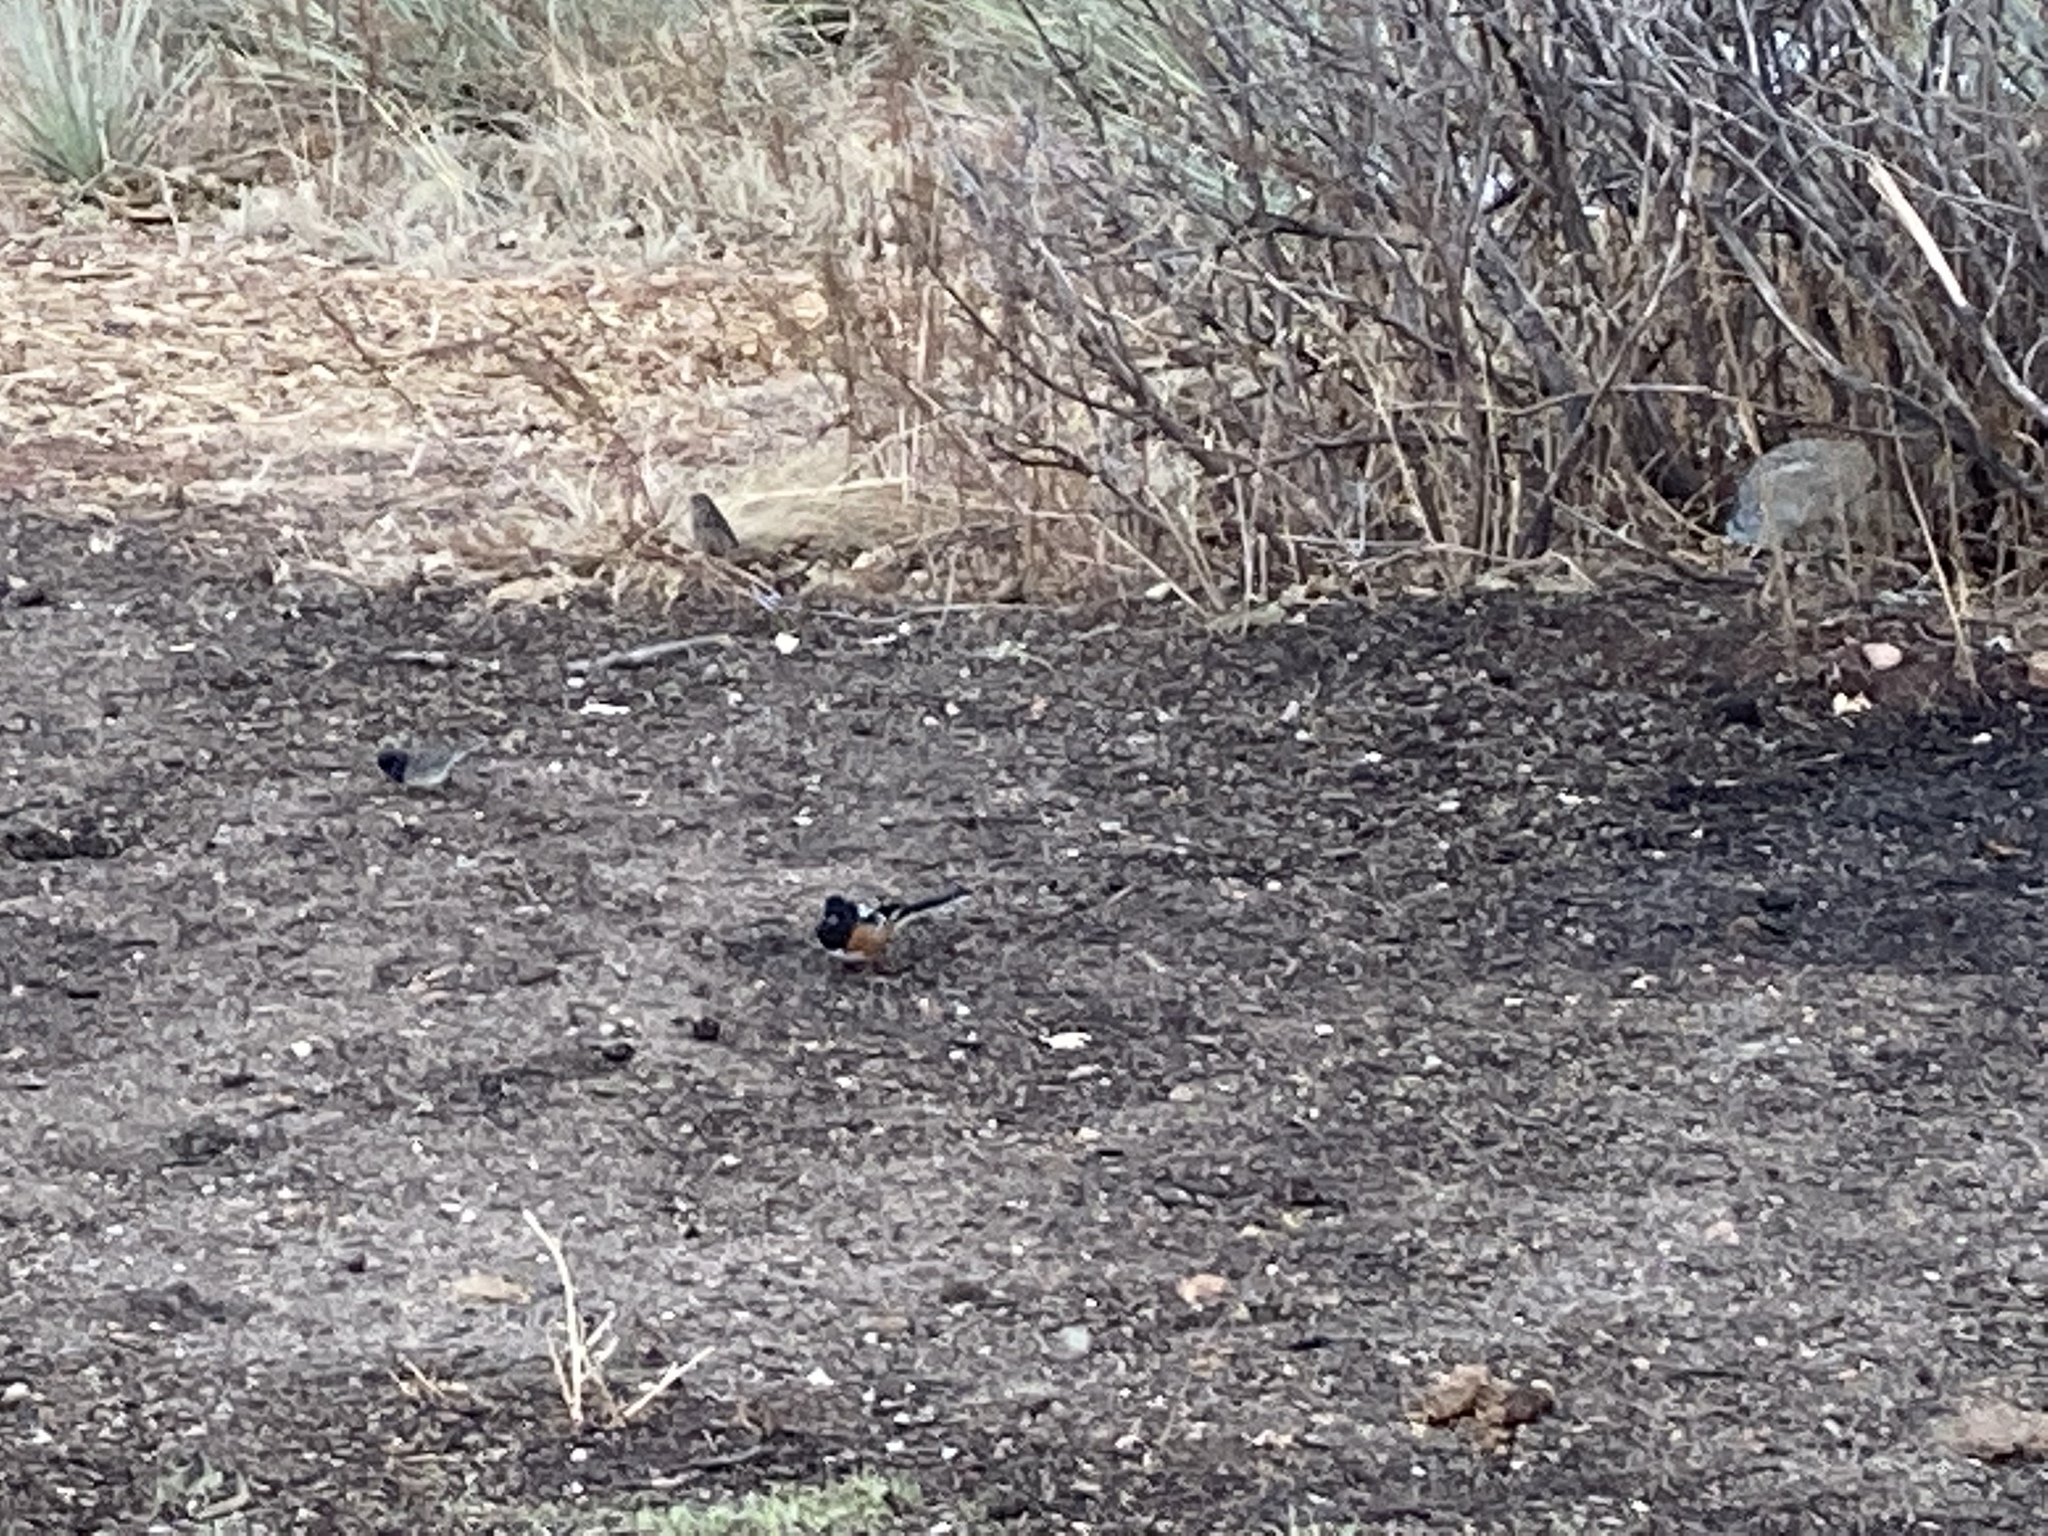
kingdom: Animalia
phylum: Chordata
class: Aves
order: Passeriformes
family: Passerellidae
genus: Pipilo
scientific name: Pipilo maculatus
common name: Spotted towhee
